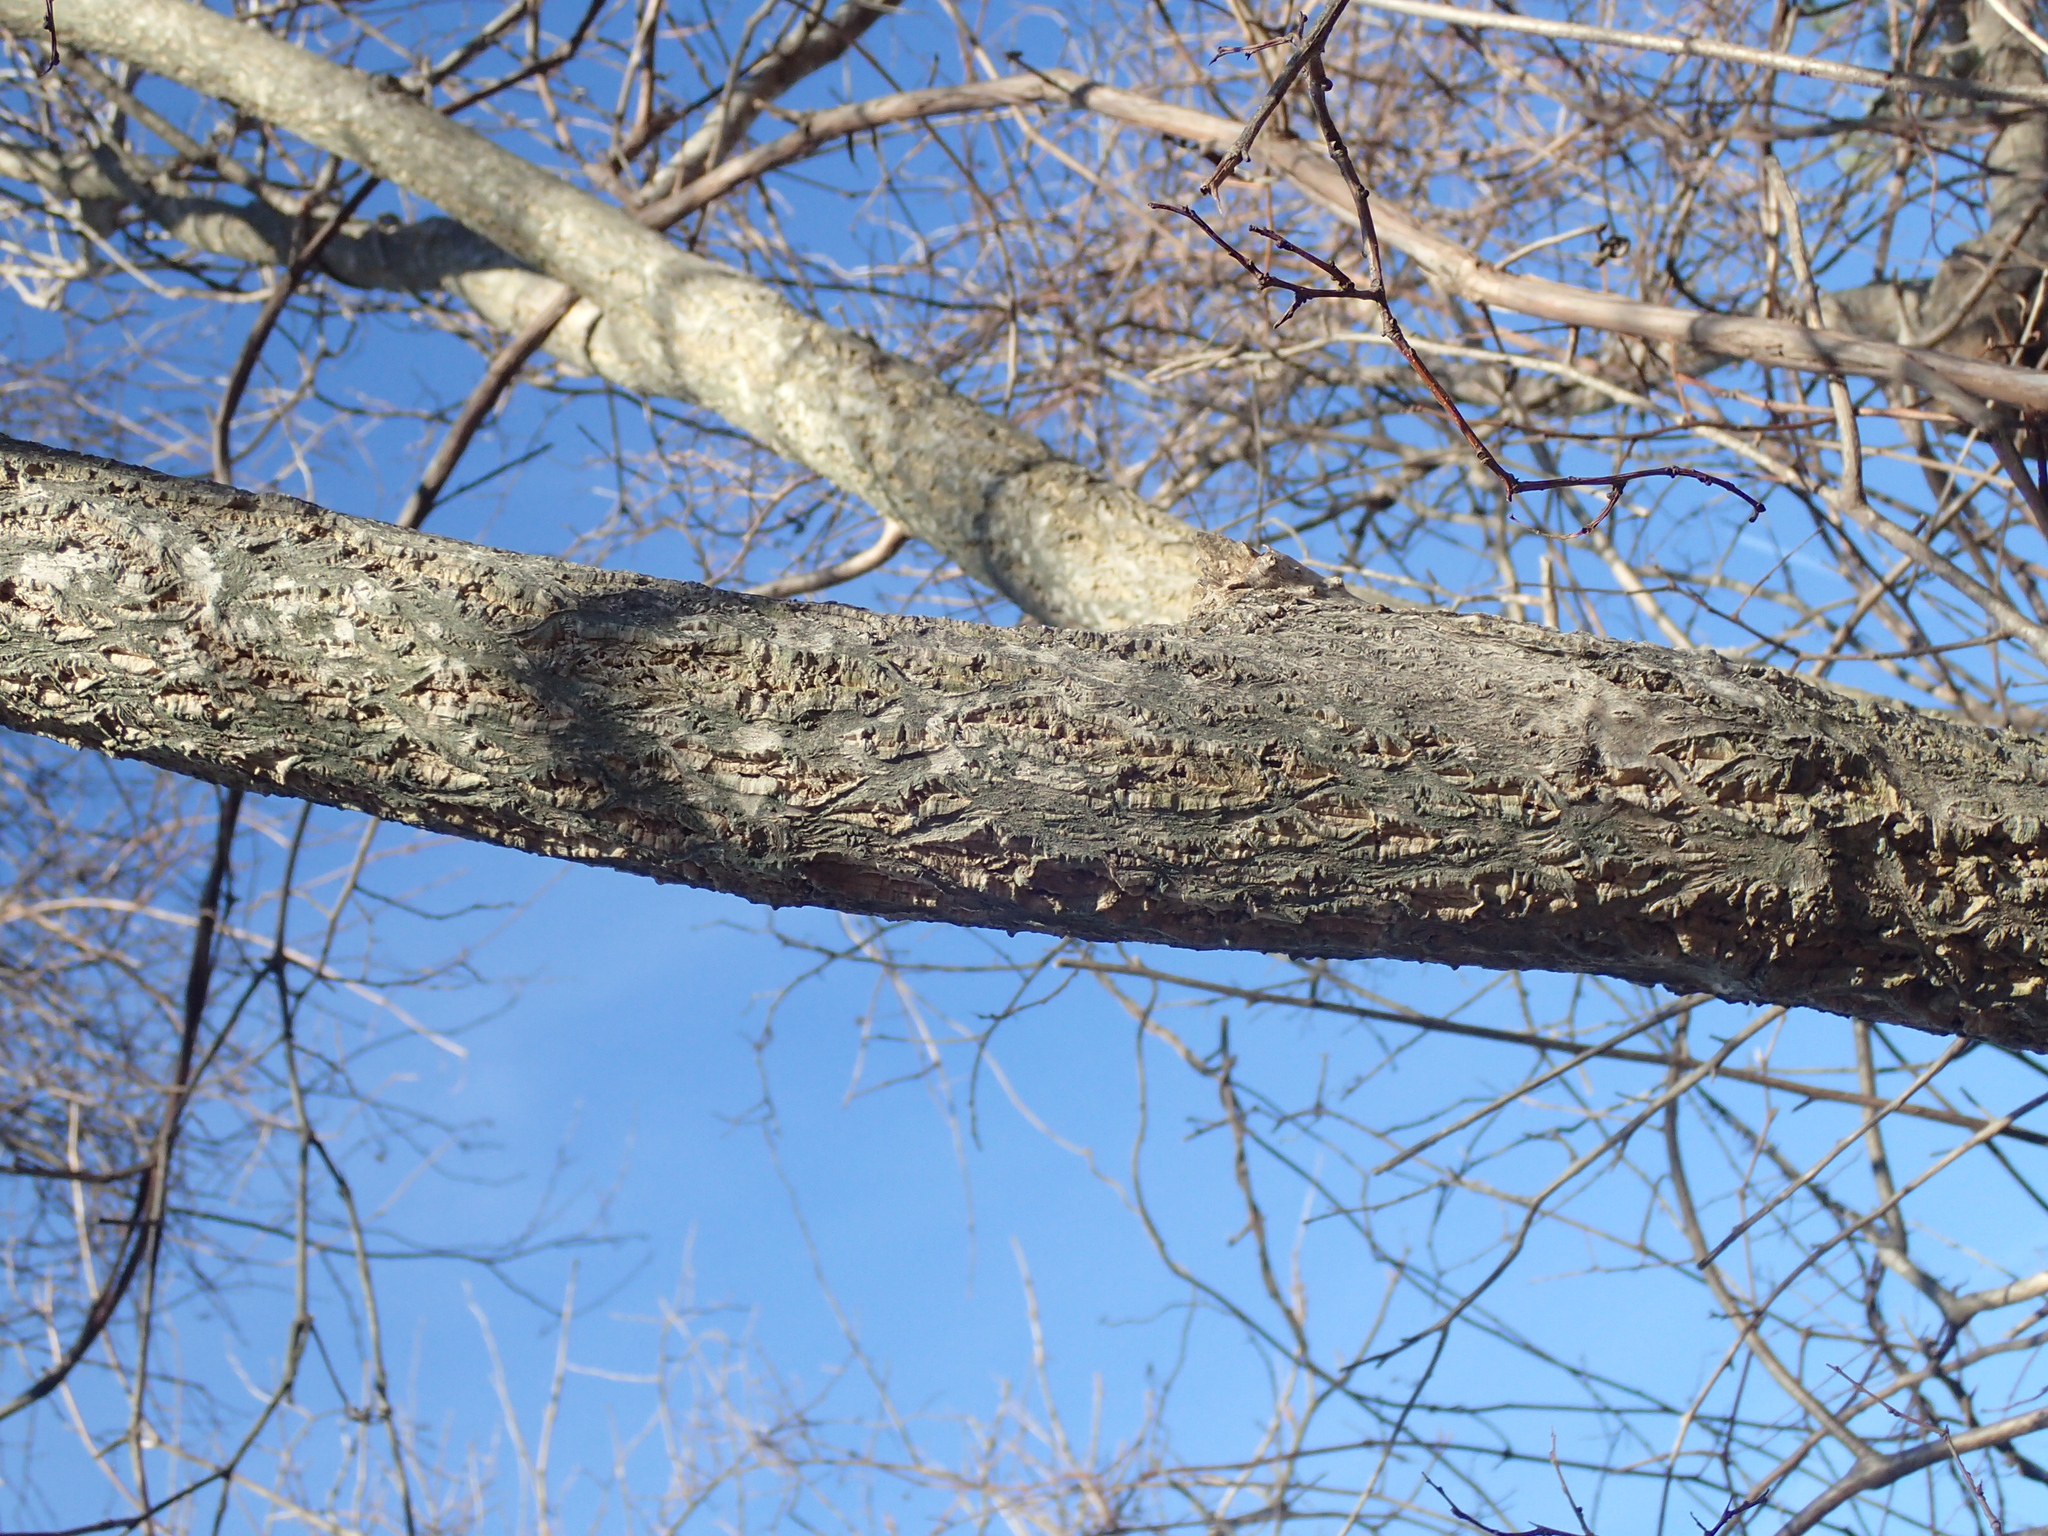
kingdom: Plantae
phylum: Tracheophyta
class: Magnoliopsida
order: Sapindales
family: Rutaceae
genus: Phellodendron
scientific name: Phellodendron amurense
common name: Amur corktree
